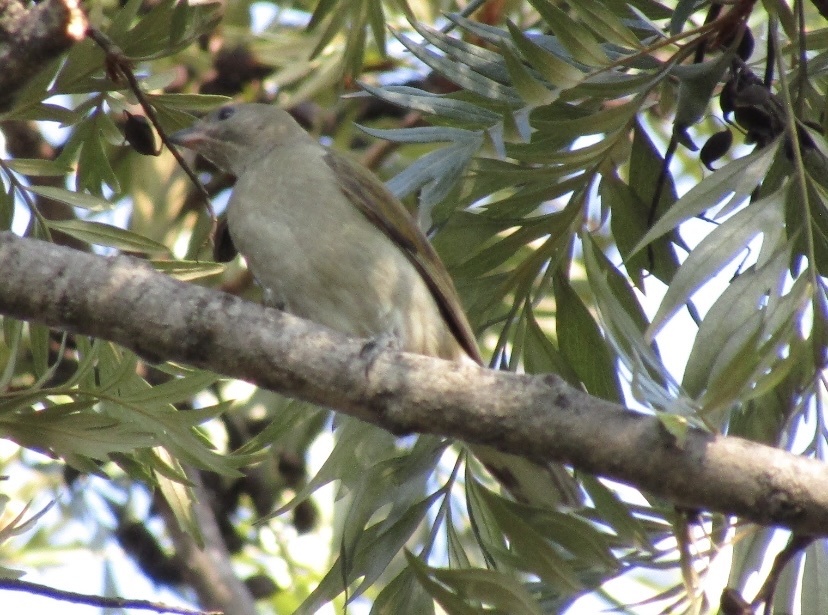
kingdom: Animalia
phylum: Chordata
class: Aves
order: Piciformes
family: Indicatoridae
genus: Indicator
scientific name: Indicator minor
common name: Lesser honeyguide
